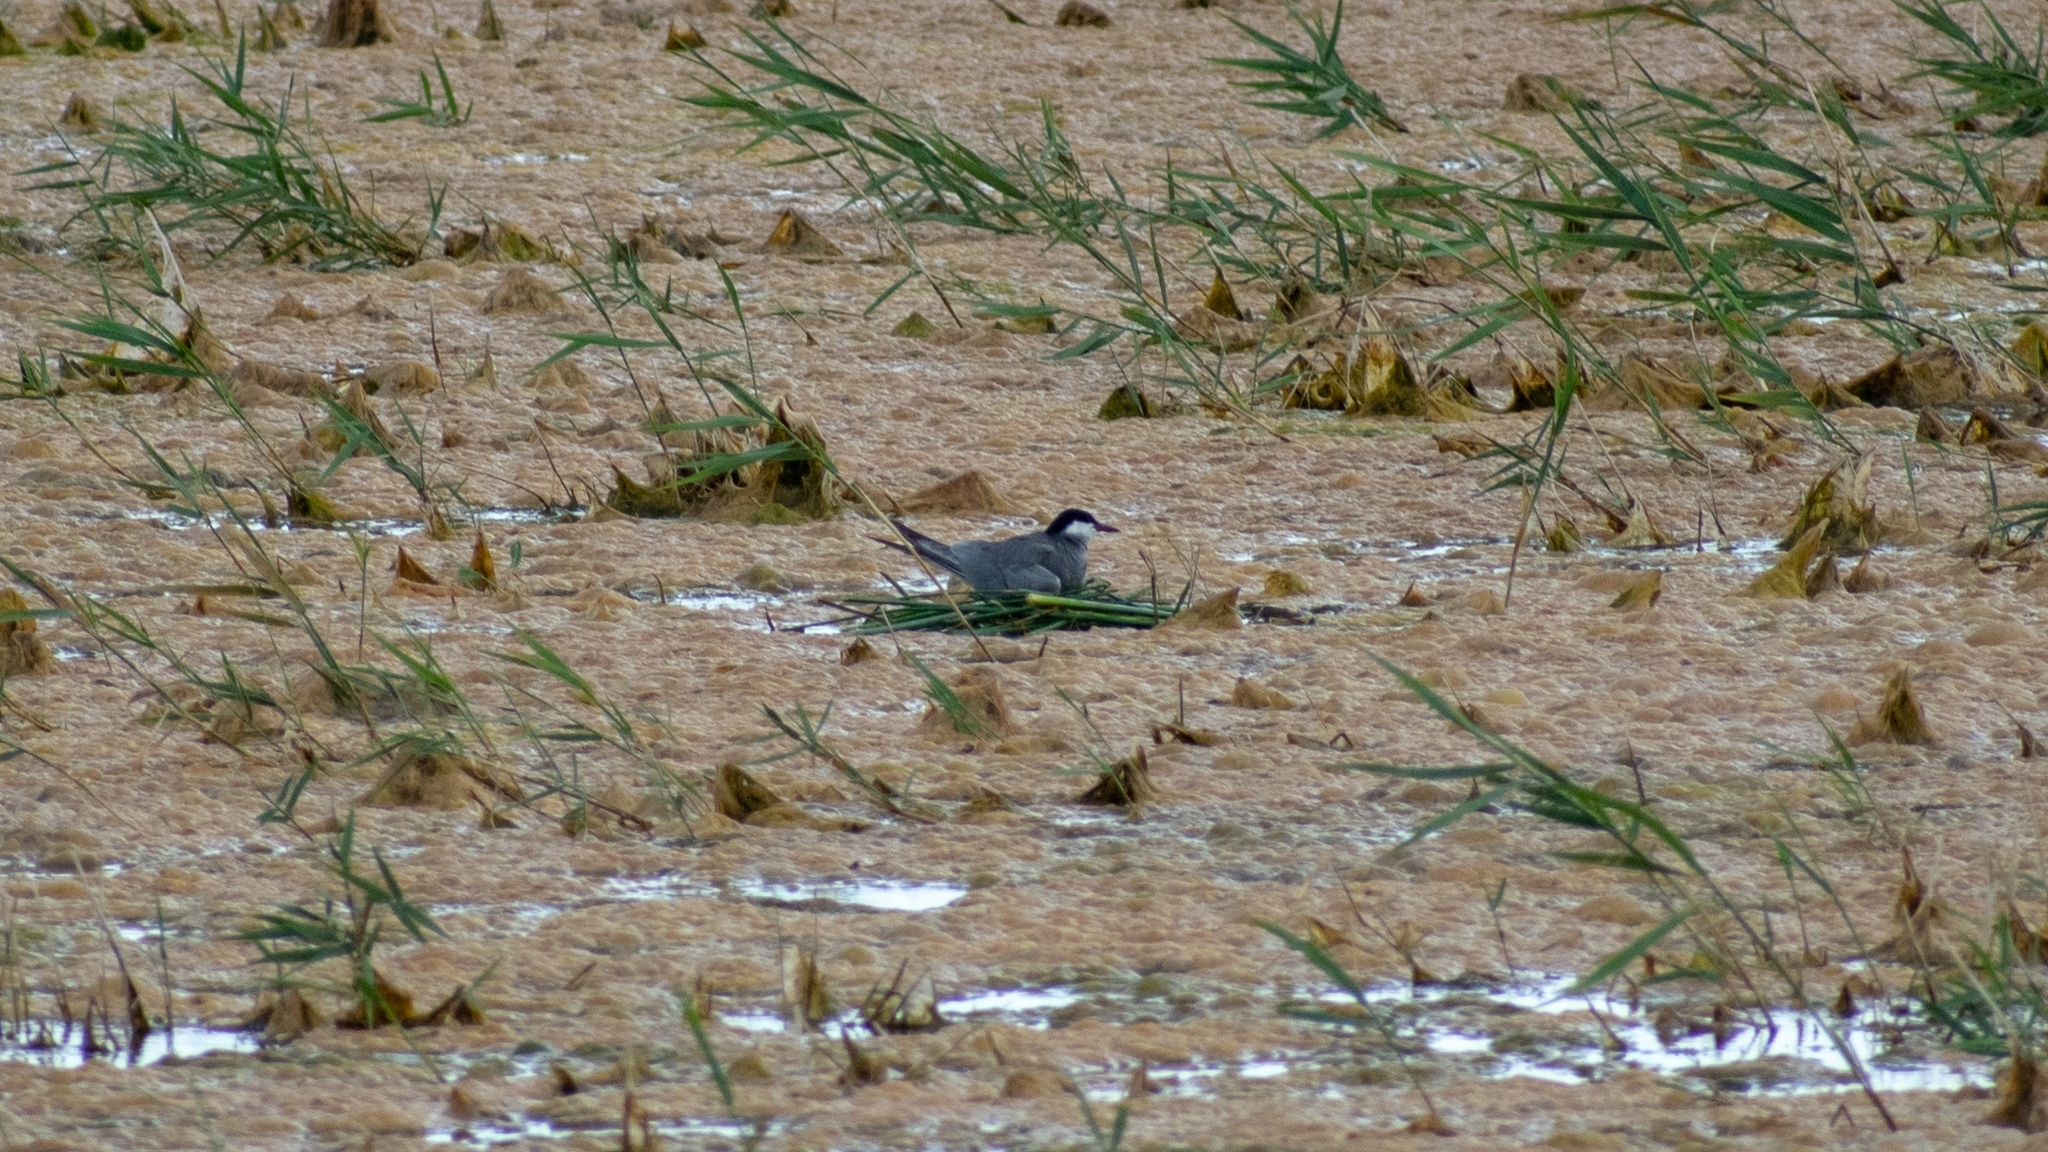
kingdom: Animalia
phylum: Chordata
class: Aves
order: Charadriiformes
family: Laridae
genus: Chlidonias
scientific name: Chlidonias hybrida
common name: Whiskered tern
